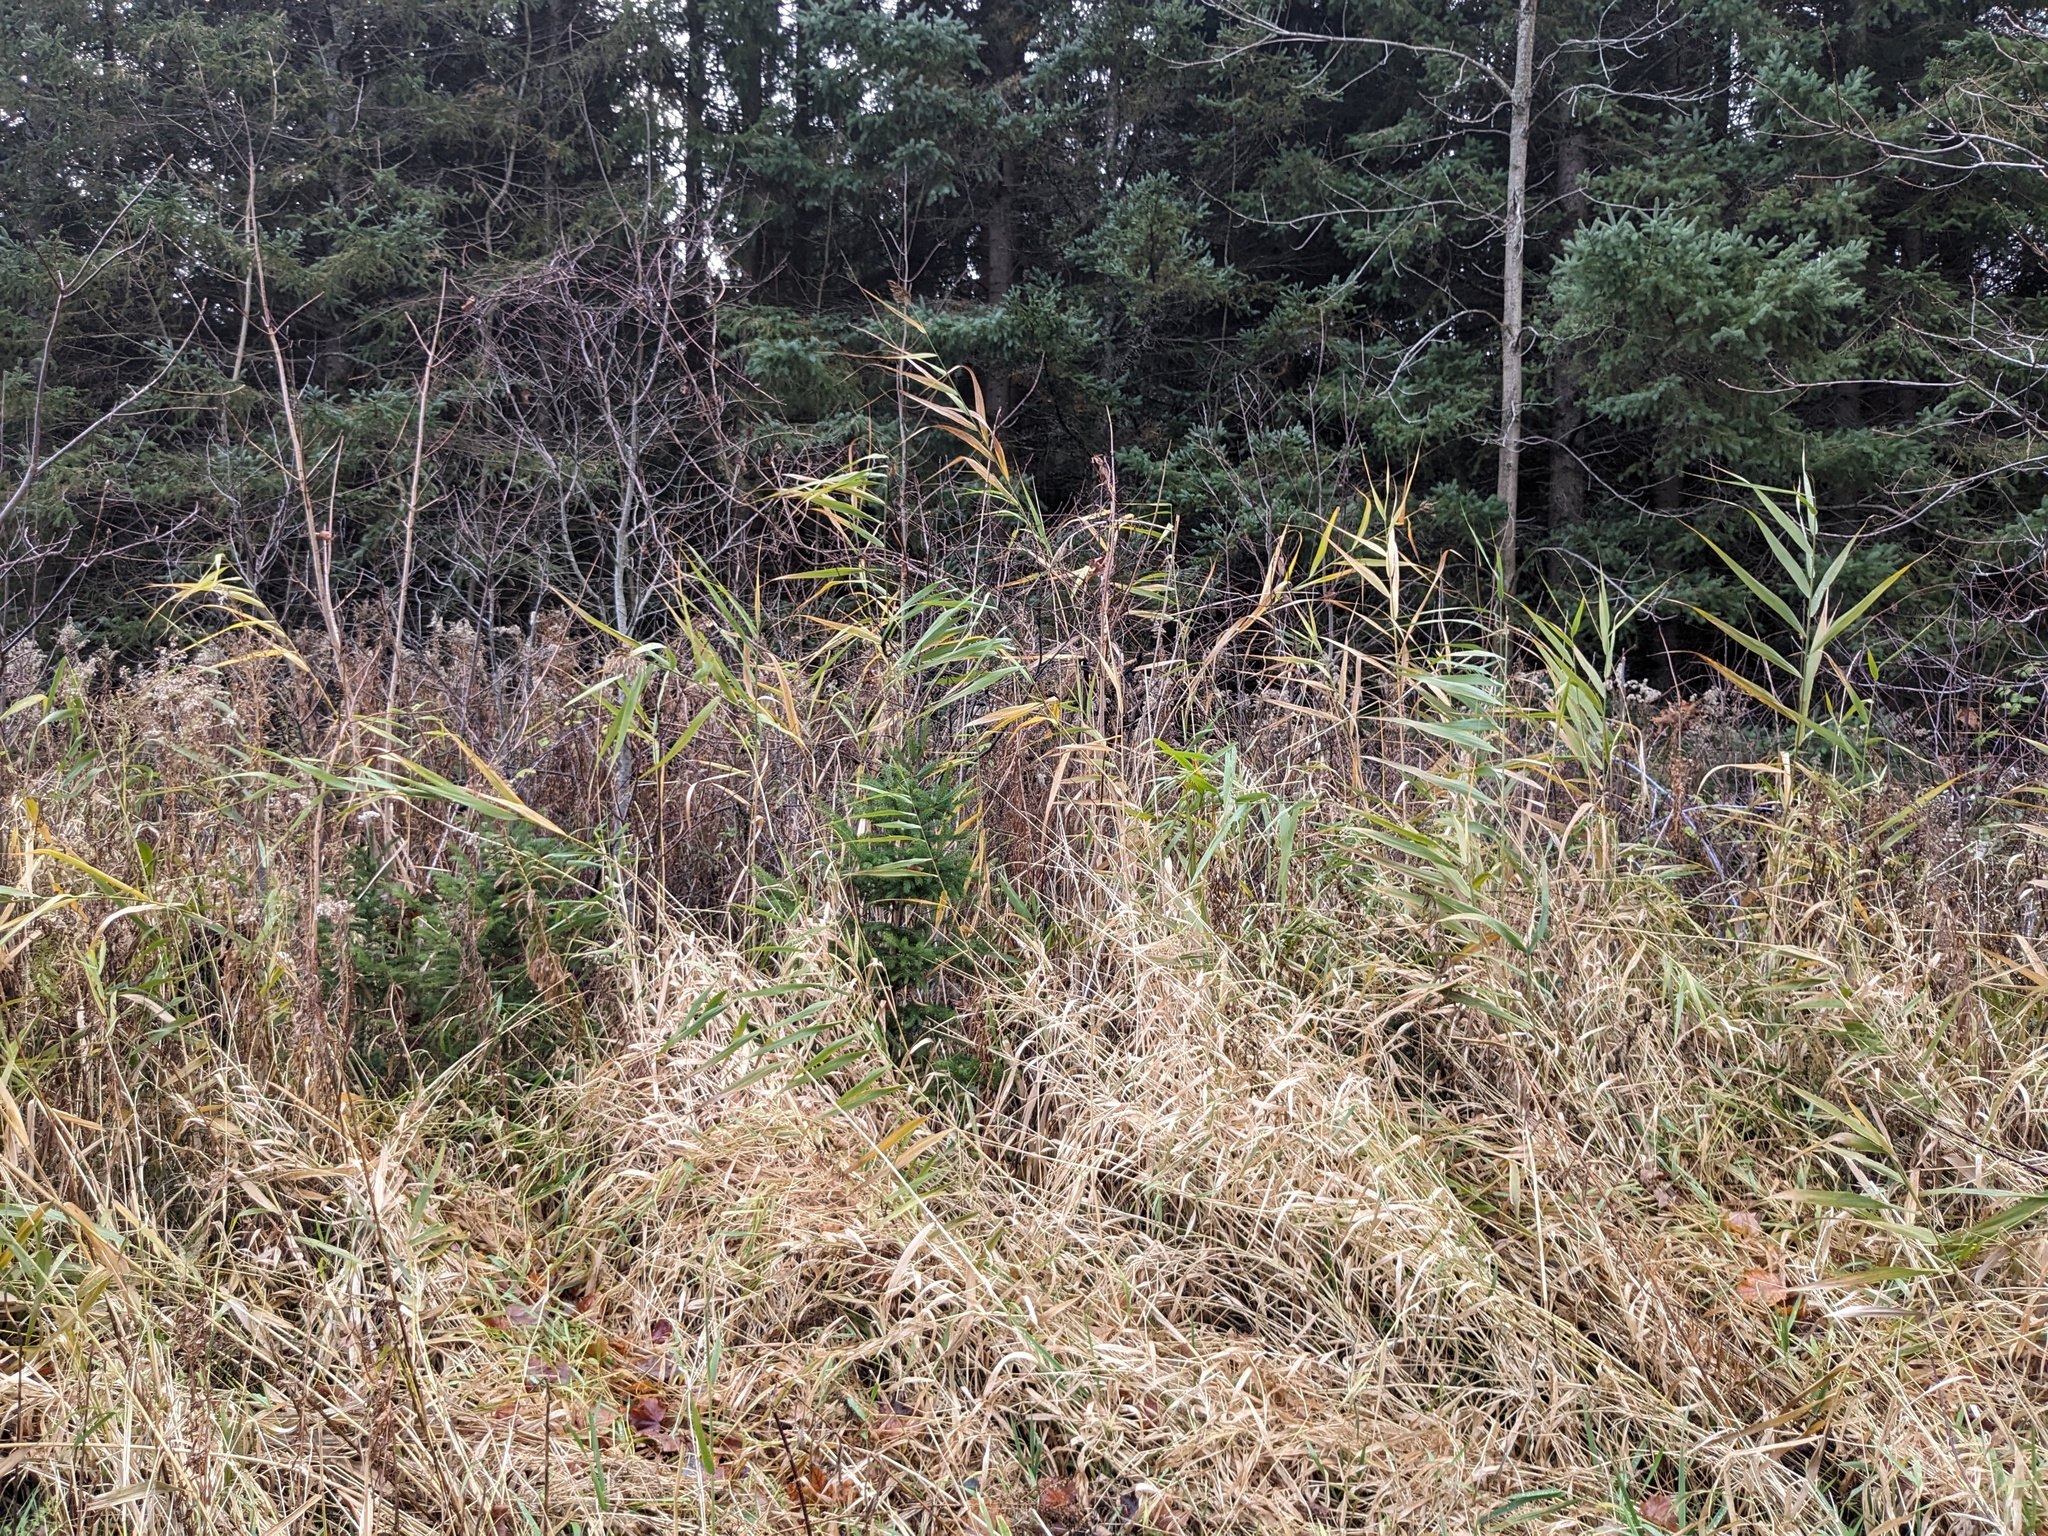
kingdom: Plantae
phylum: Tracheophyta
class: Liliopsida
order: Poales
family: Poaceae
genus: Phragmites
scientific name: Phragmites australis
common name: Common reed
